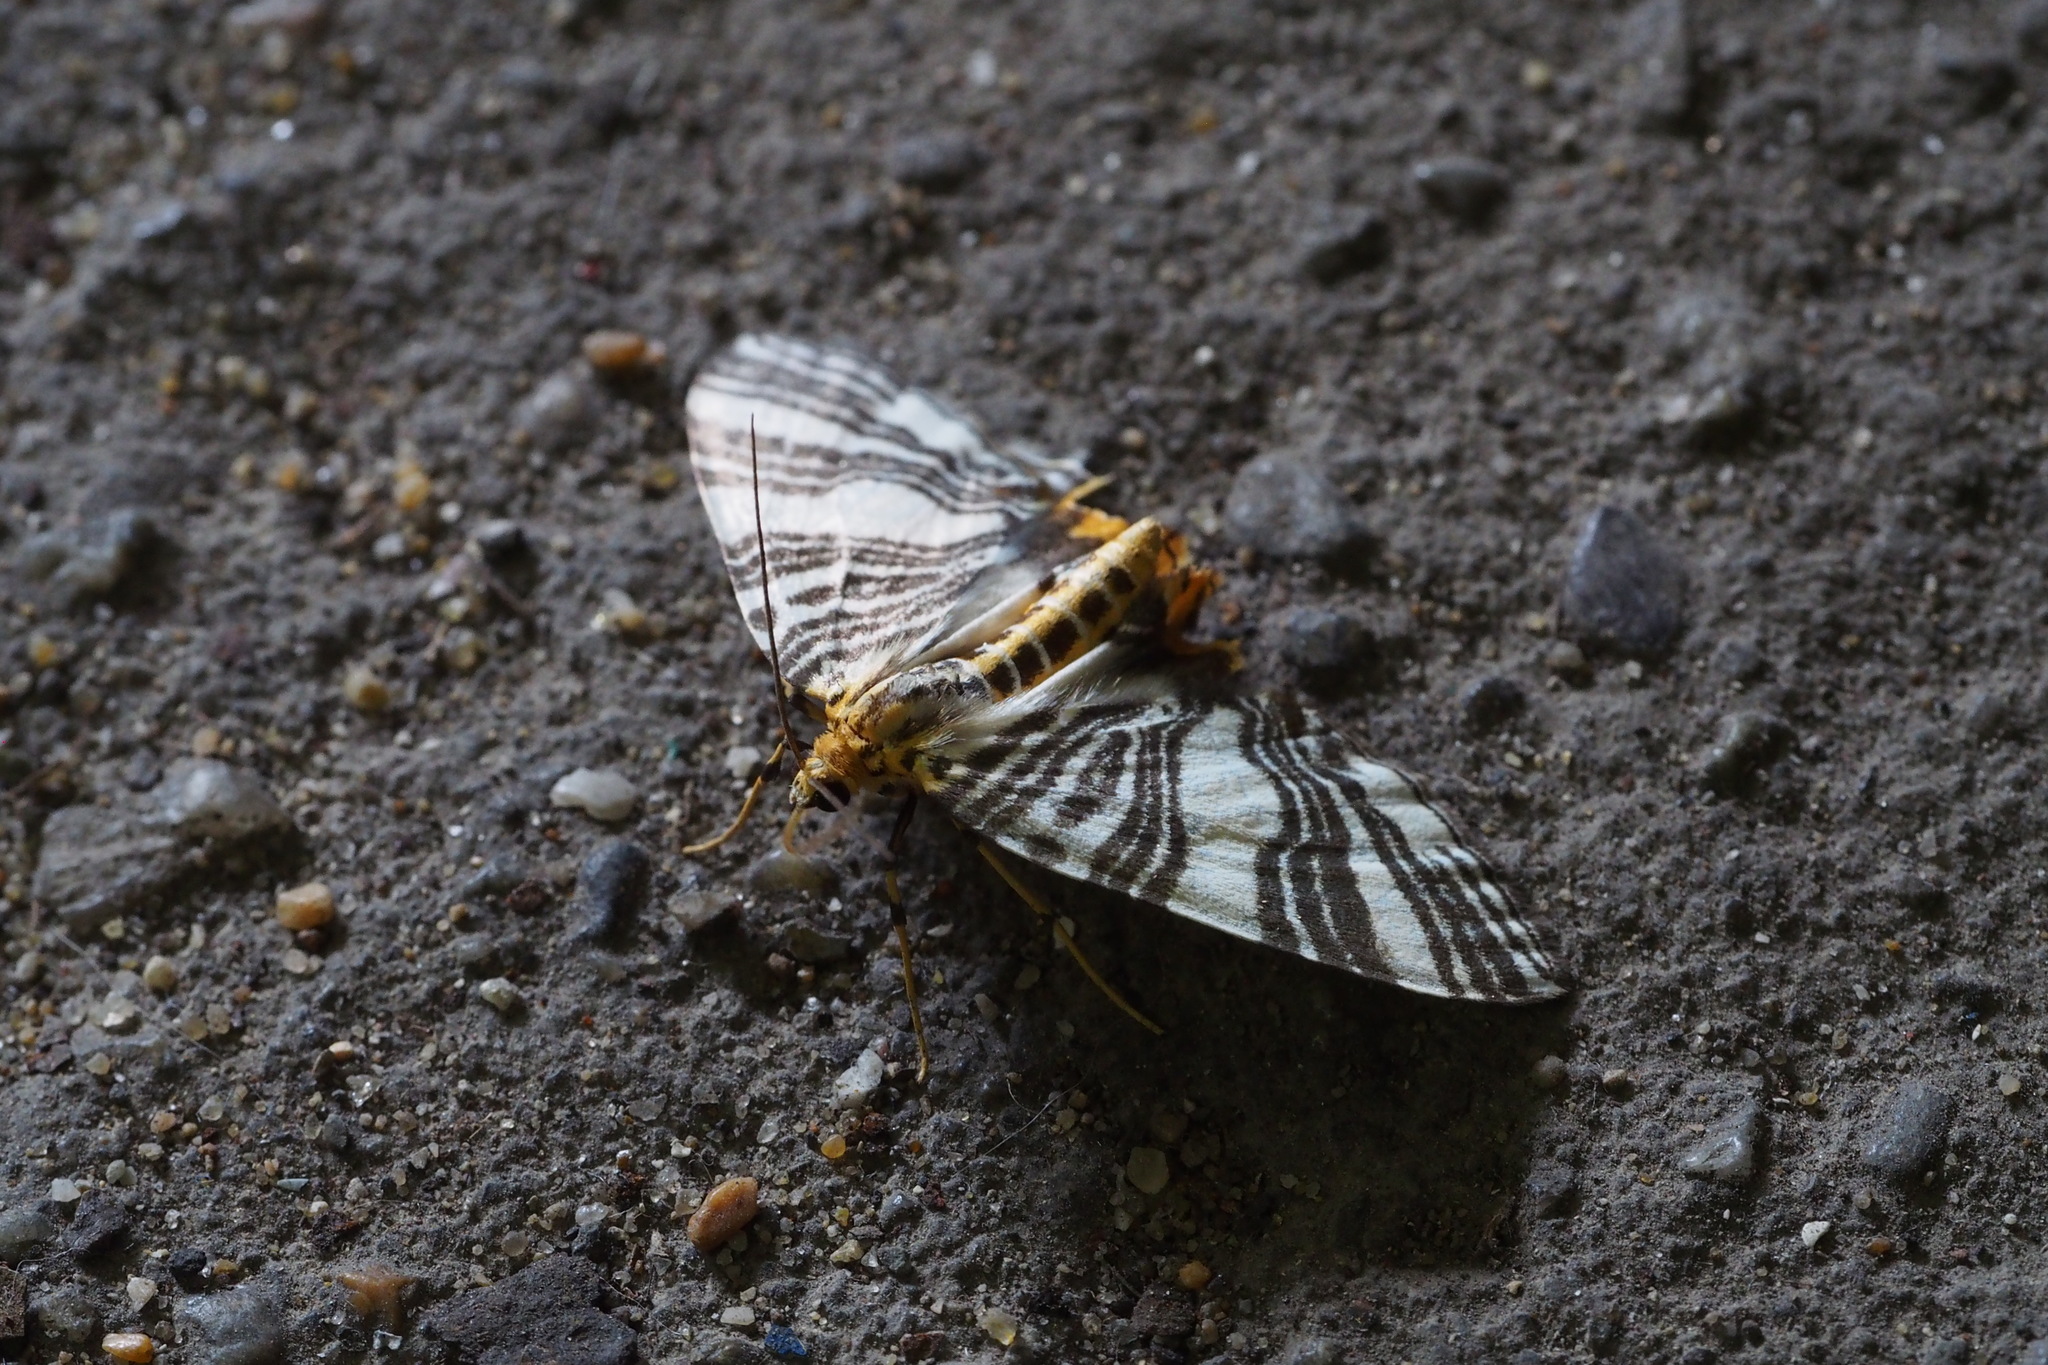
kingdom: Animalia
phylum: Arthropoda
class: Insecta
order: Lepidoptera
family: Geometridae
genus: Callabraxas
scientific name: Callabraxas compositata
